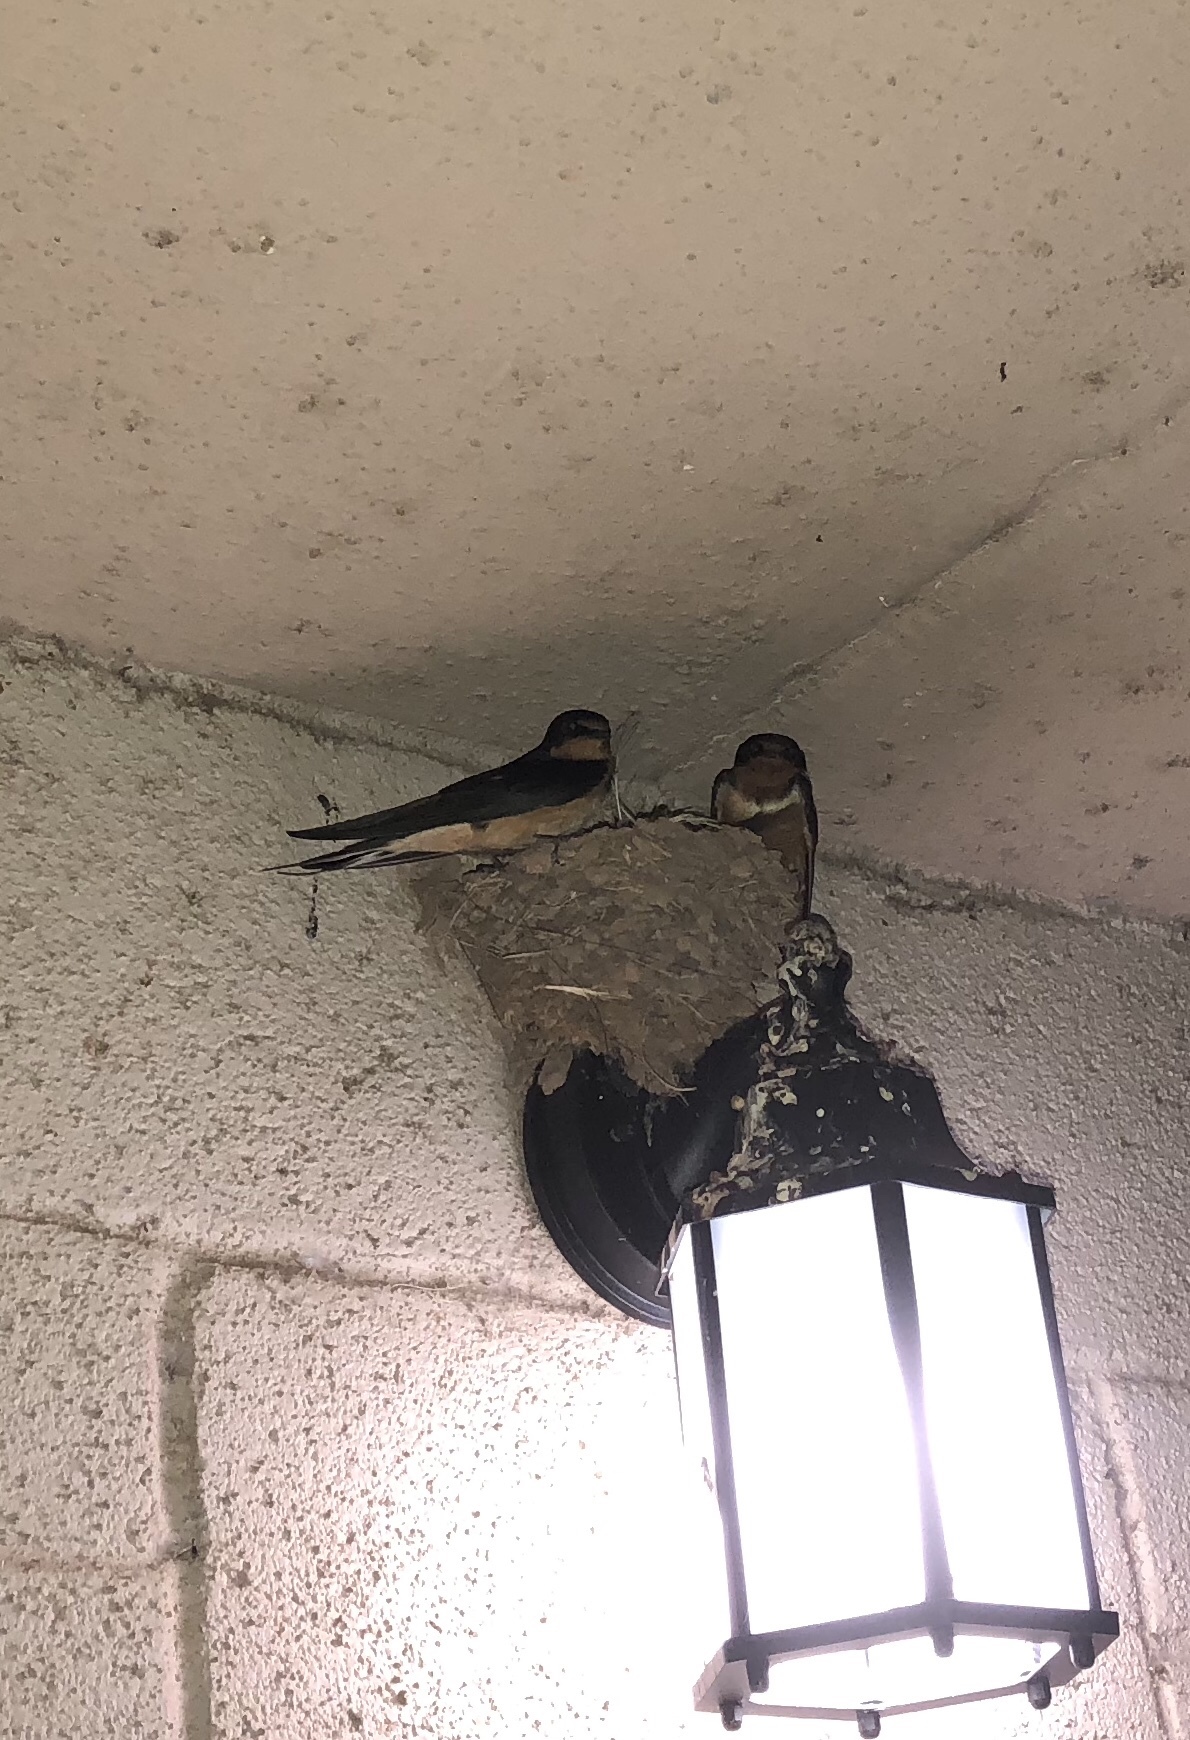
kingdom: Animalia
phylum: Chordata
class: Aves
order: Passeriformes
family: Hirundinidae
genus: Hirundo
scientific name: Hirundo rustica
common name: Barn swallow
